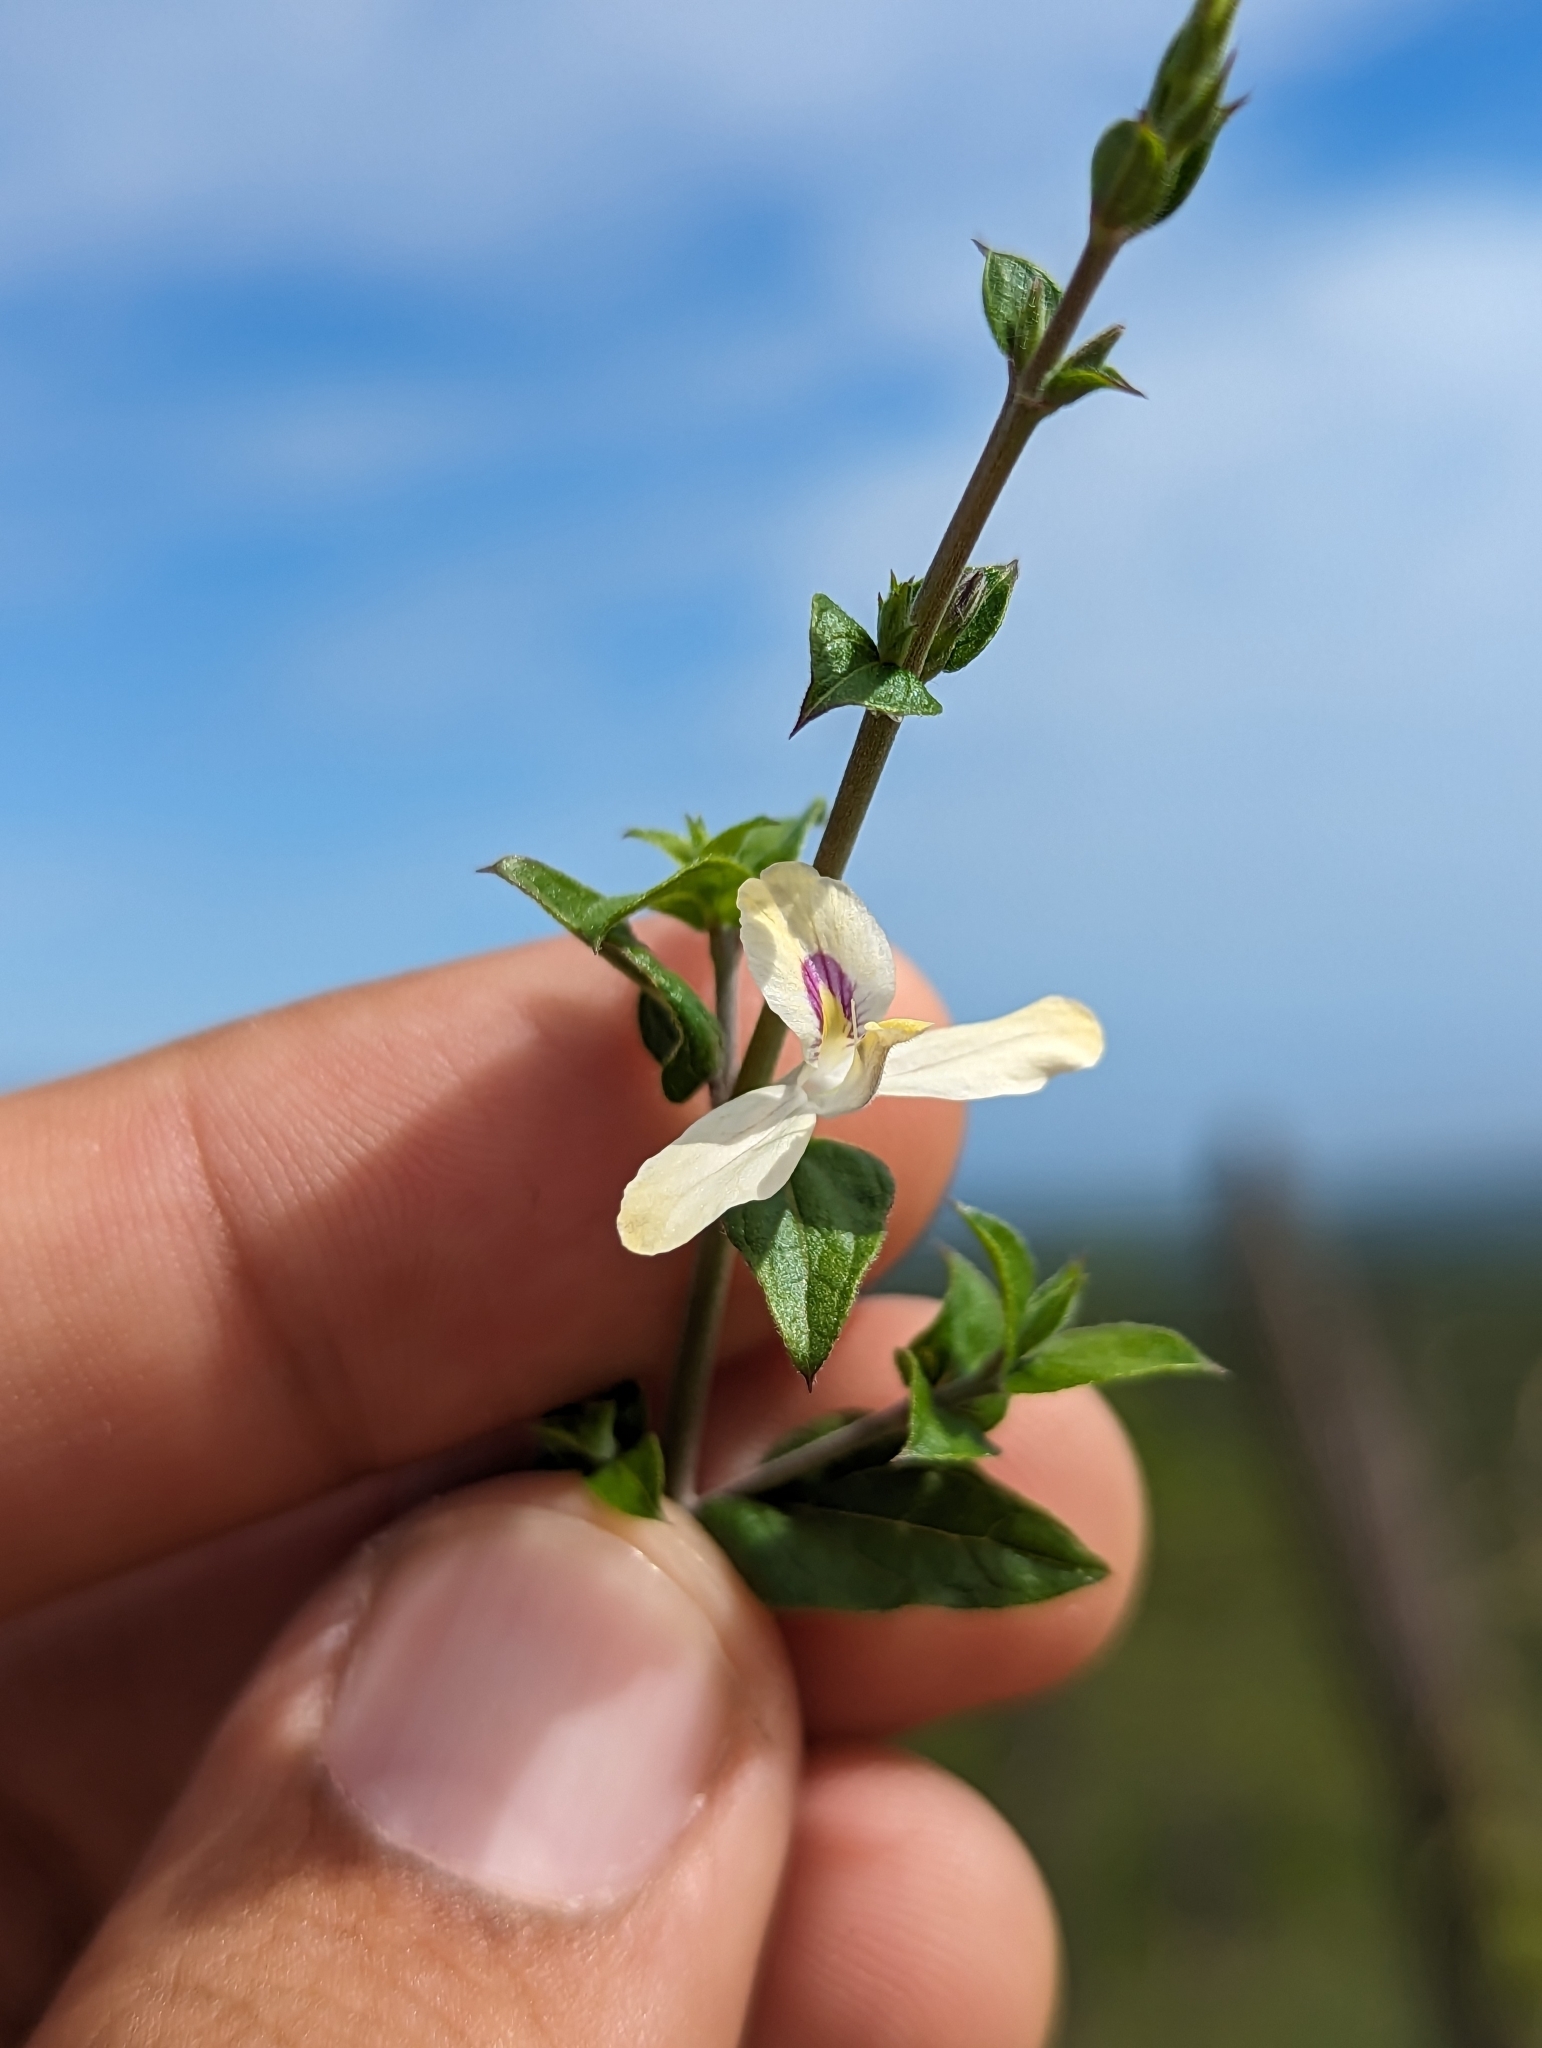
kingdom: Plantae
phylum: Tracheophyta
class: Magnoliopsida
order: Lamiales
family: Acanthaceae
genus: Carlowrightia
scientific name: Carlowrightia arizonica
